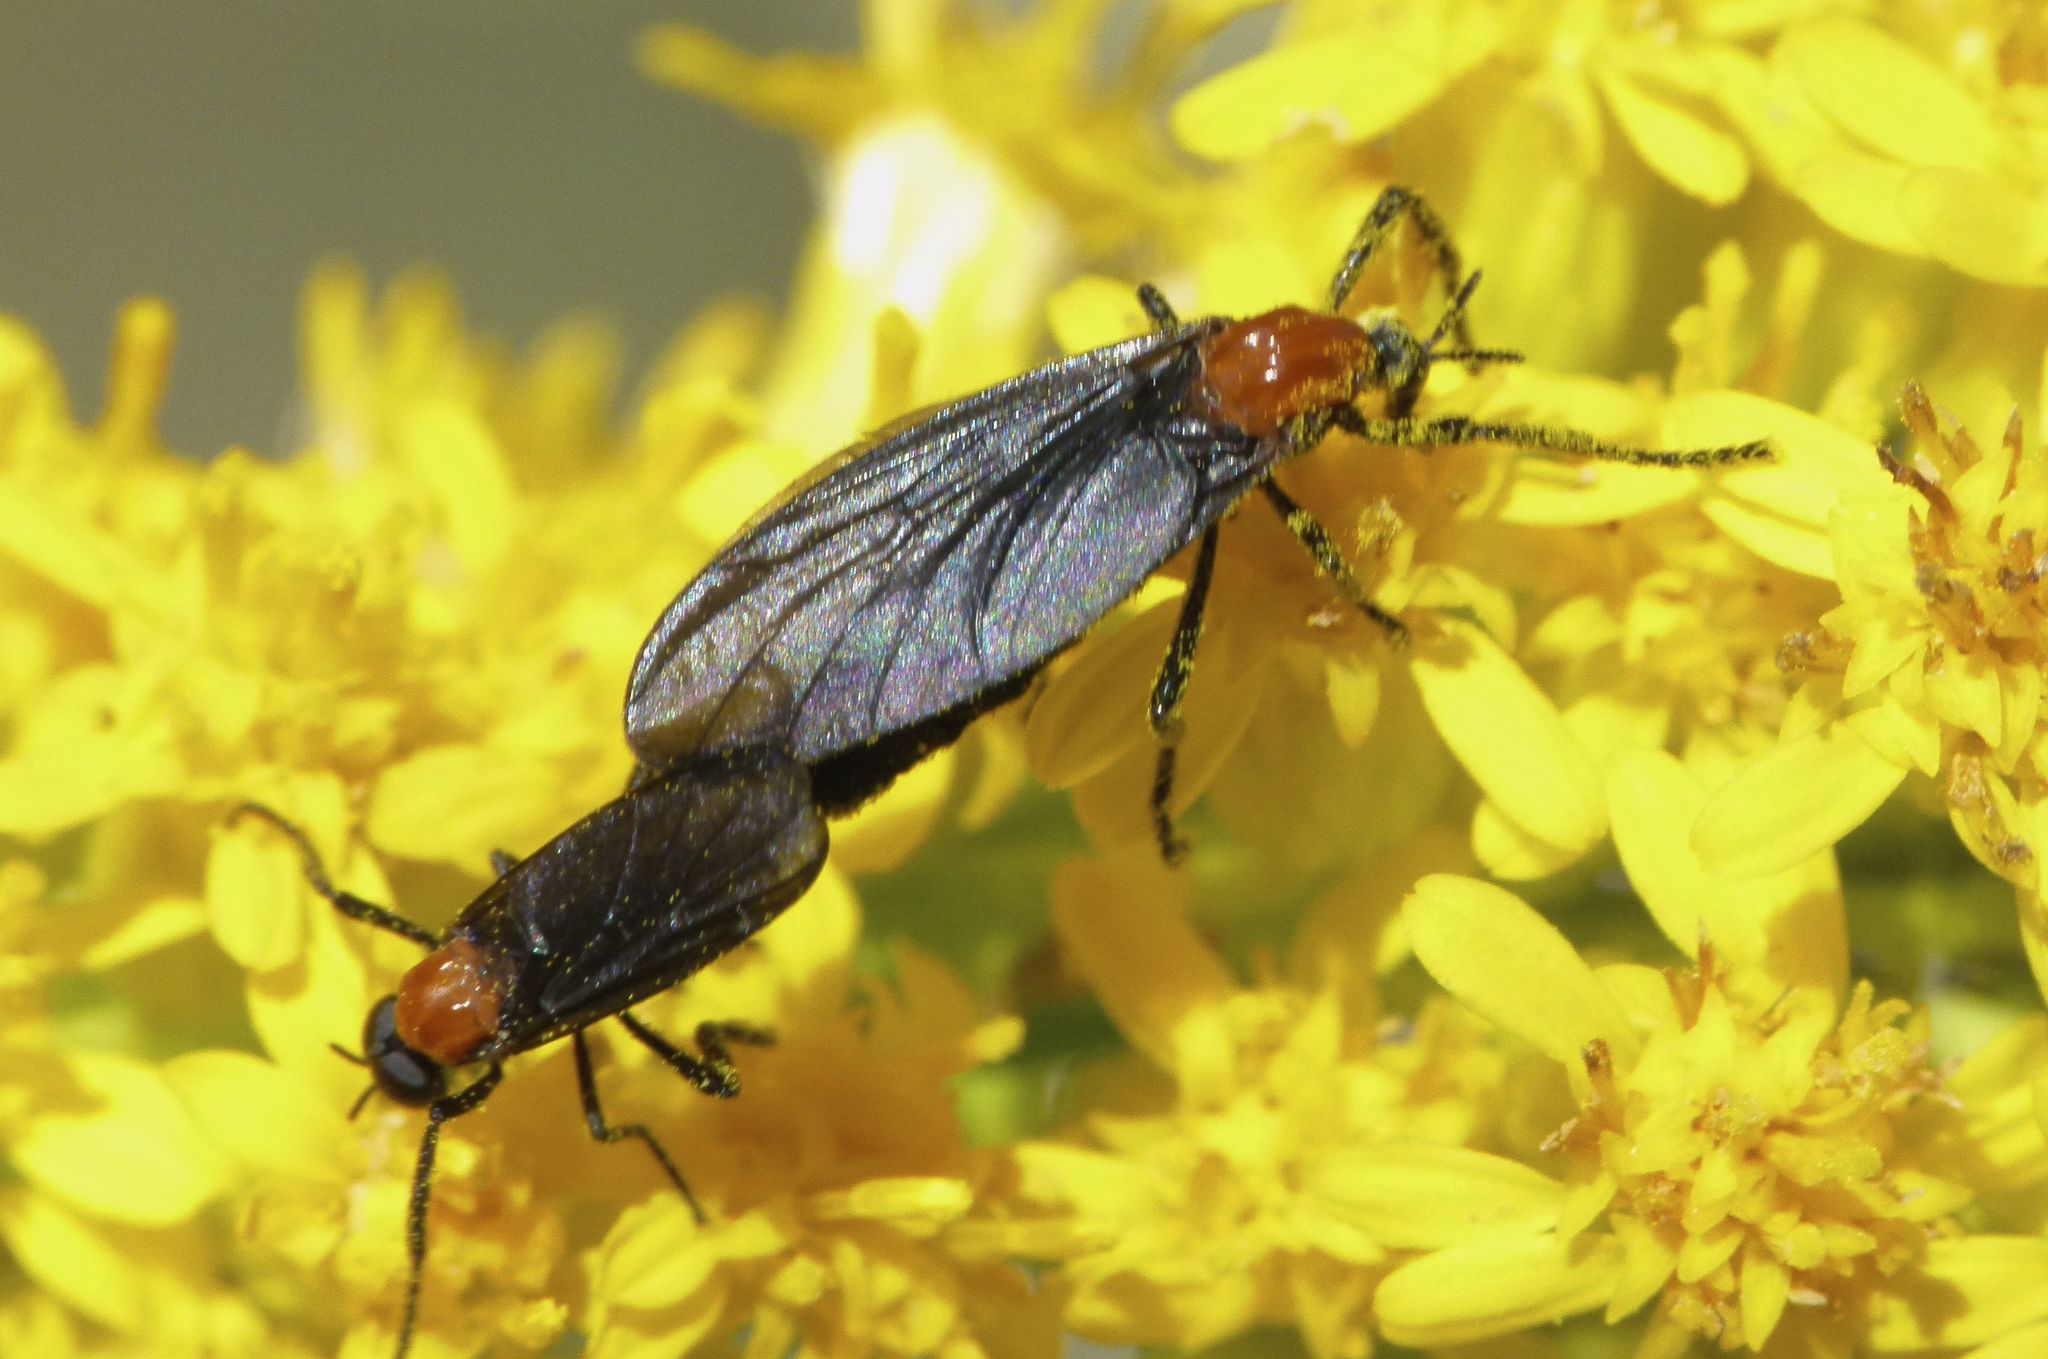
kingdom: Animalia
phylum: Arthropoda
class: Insecta
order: Diptera
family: Bibionidae
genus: Plecia
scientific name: Plecia nearctica
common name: March fly
